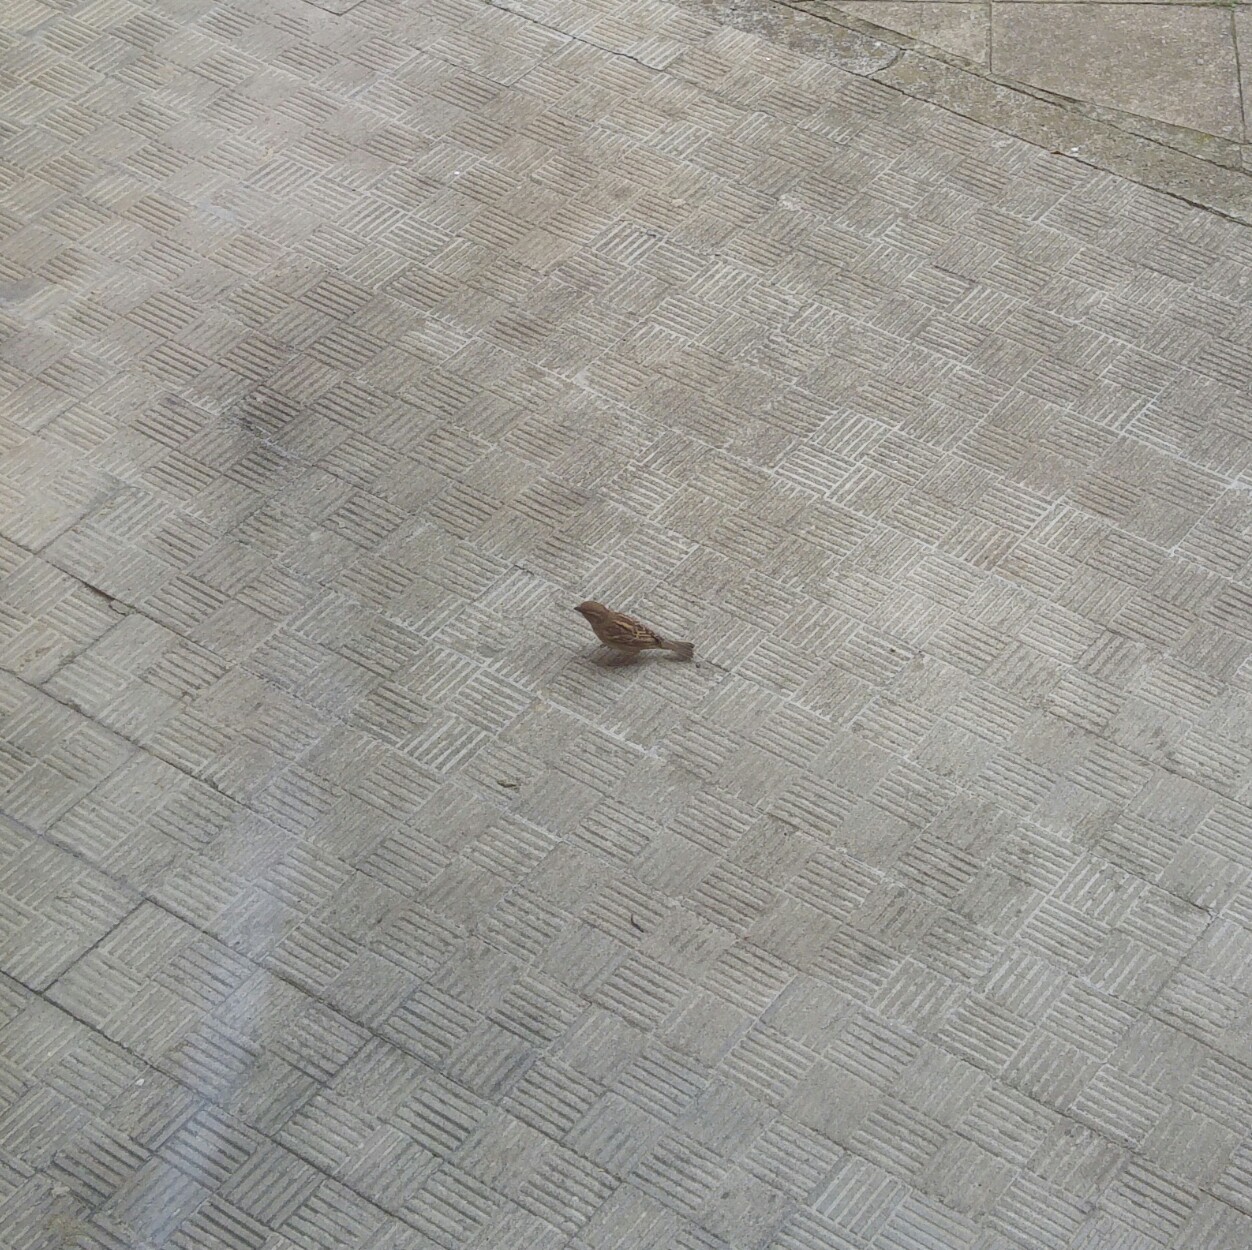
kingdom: Animalia
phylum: Chordata
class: Aves
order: Passeriformes
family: Passeridae
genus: Passer
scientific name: Passer italiae
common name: Italian sparrow
